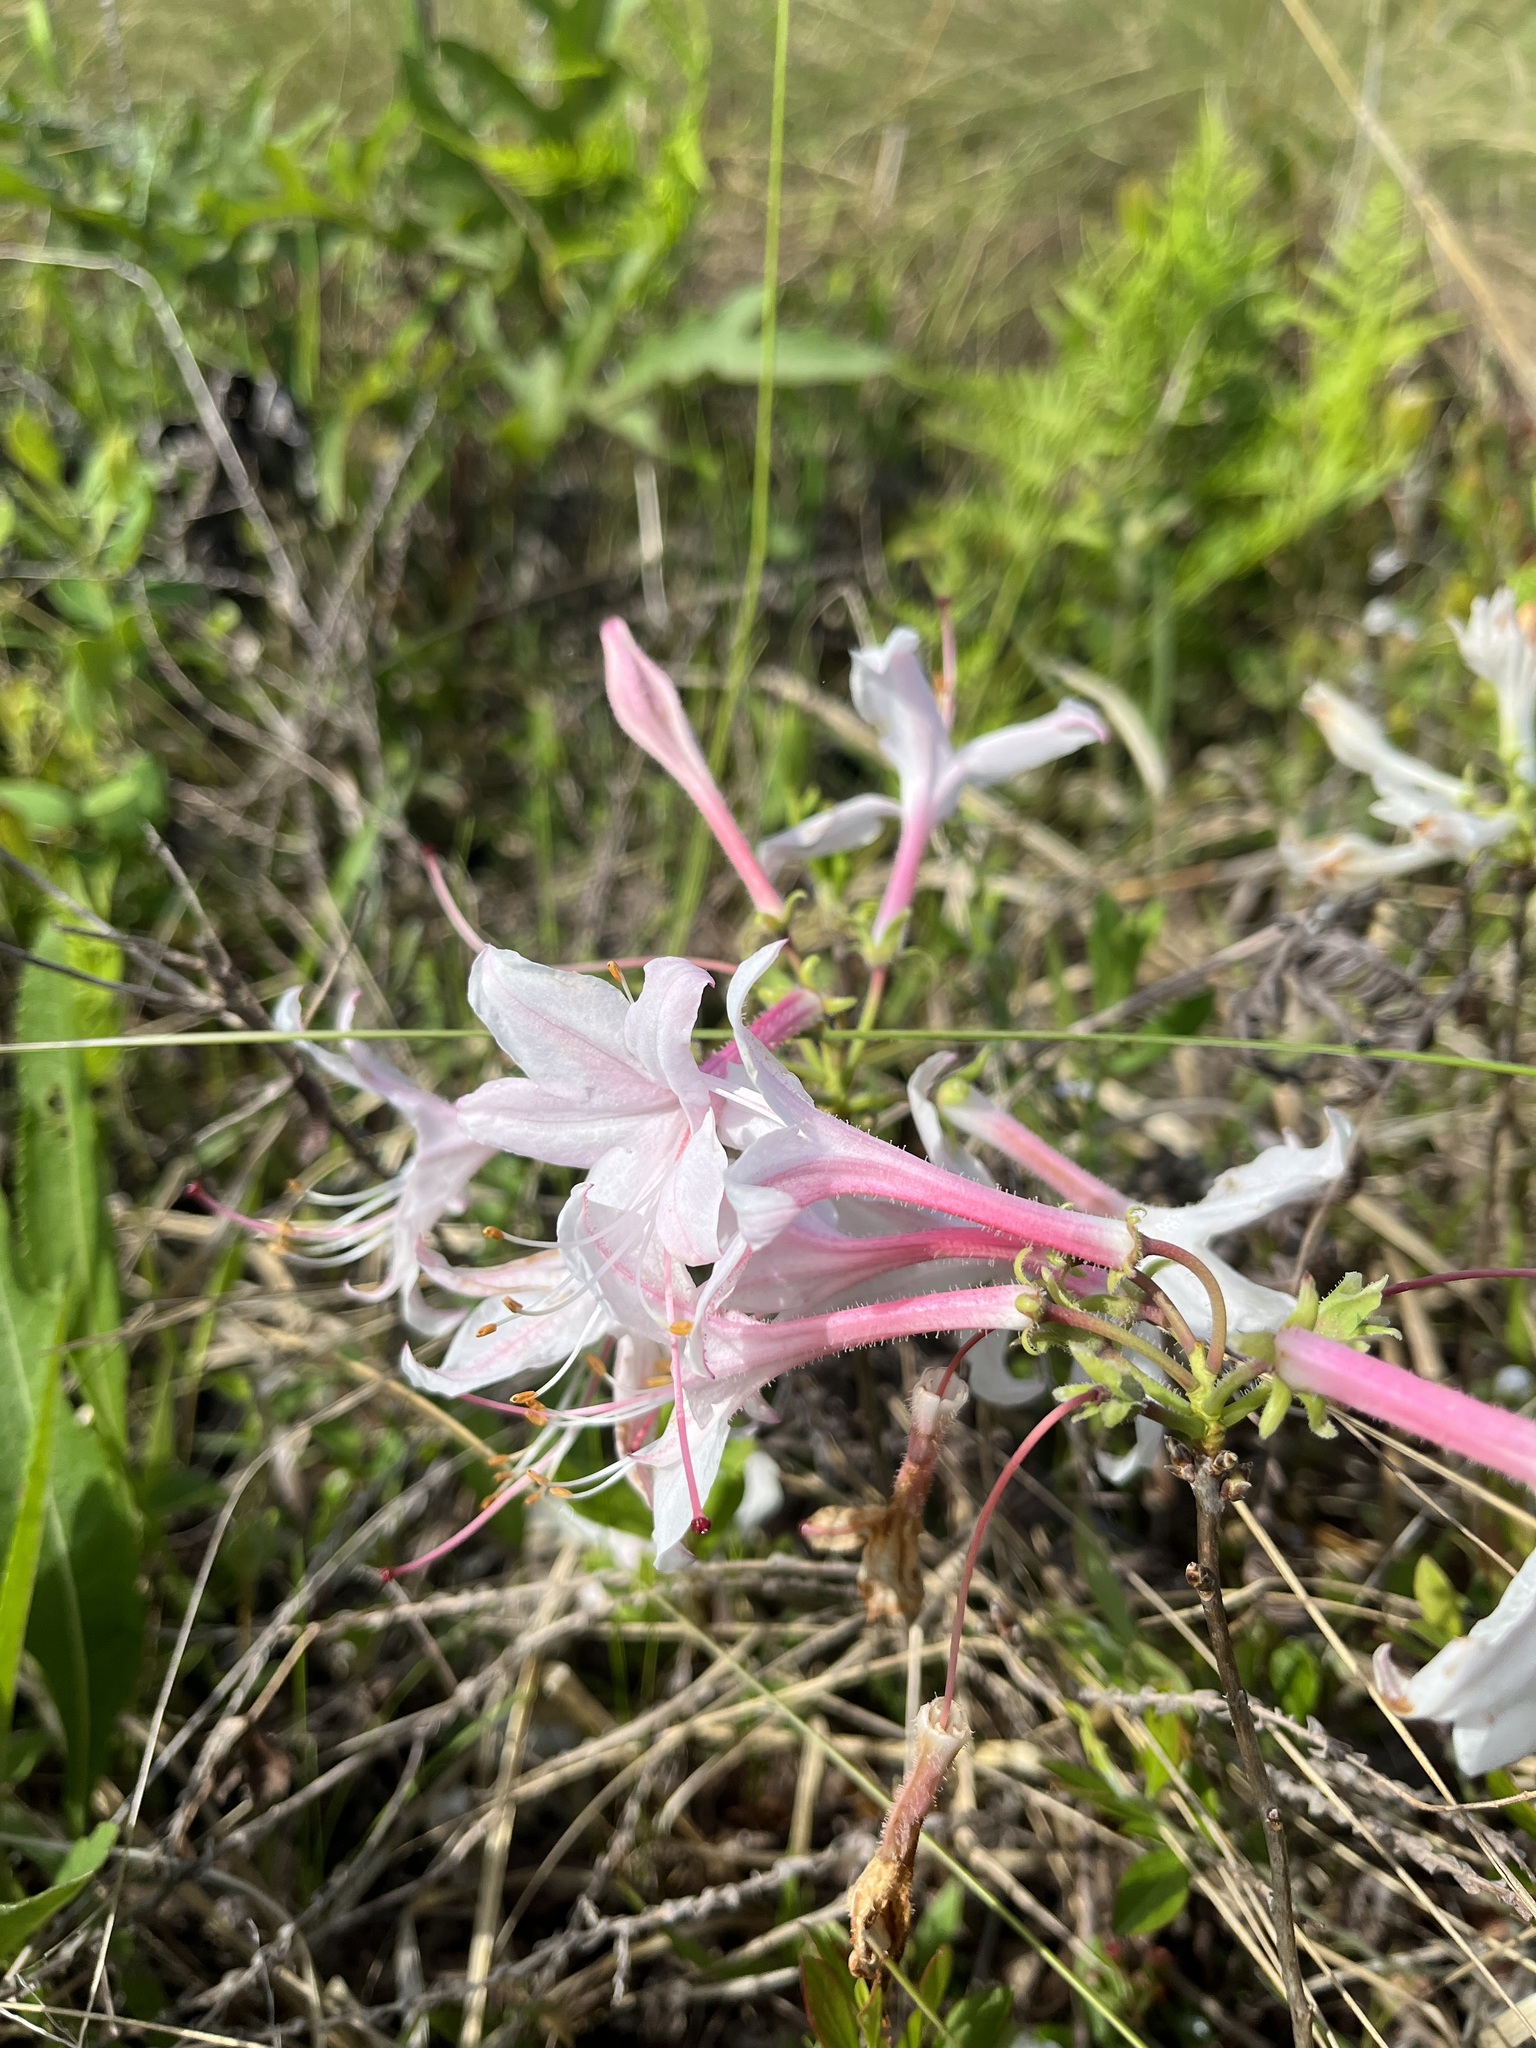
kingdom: Plantae
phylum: Tracheophyta
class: Magnoliopsida
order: Ericales
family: Ericaceae
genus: Rhododendron
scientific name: Rhododendron atlanticum
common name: Dwarf azalea
